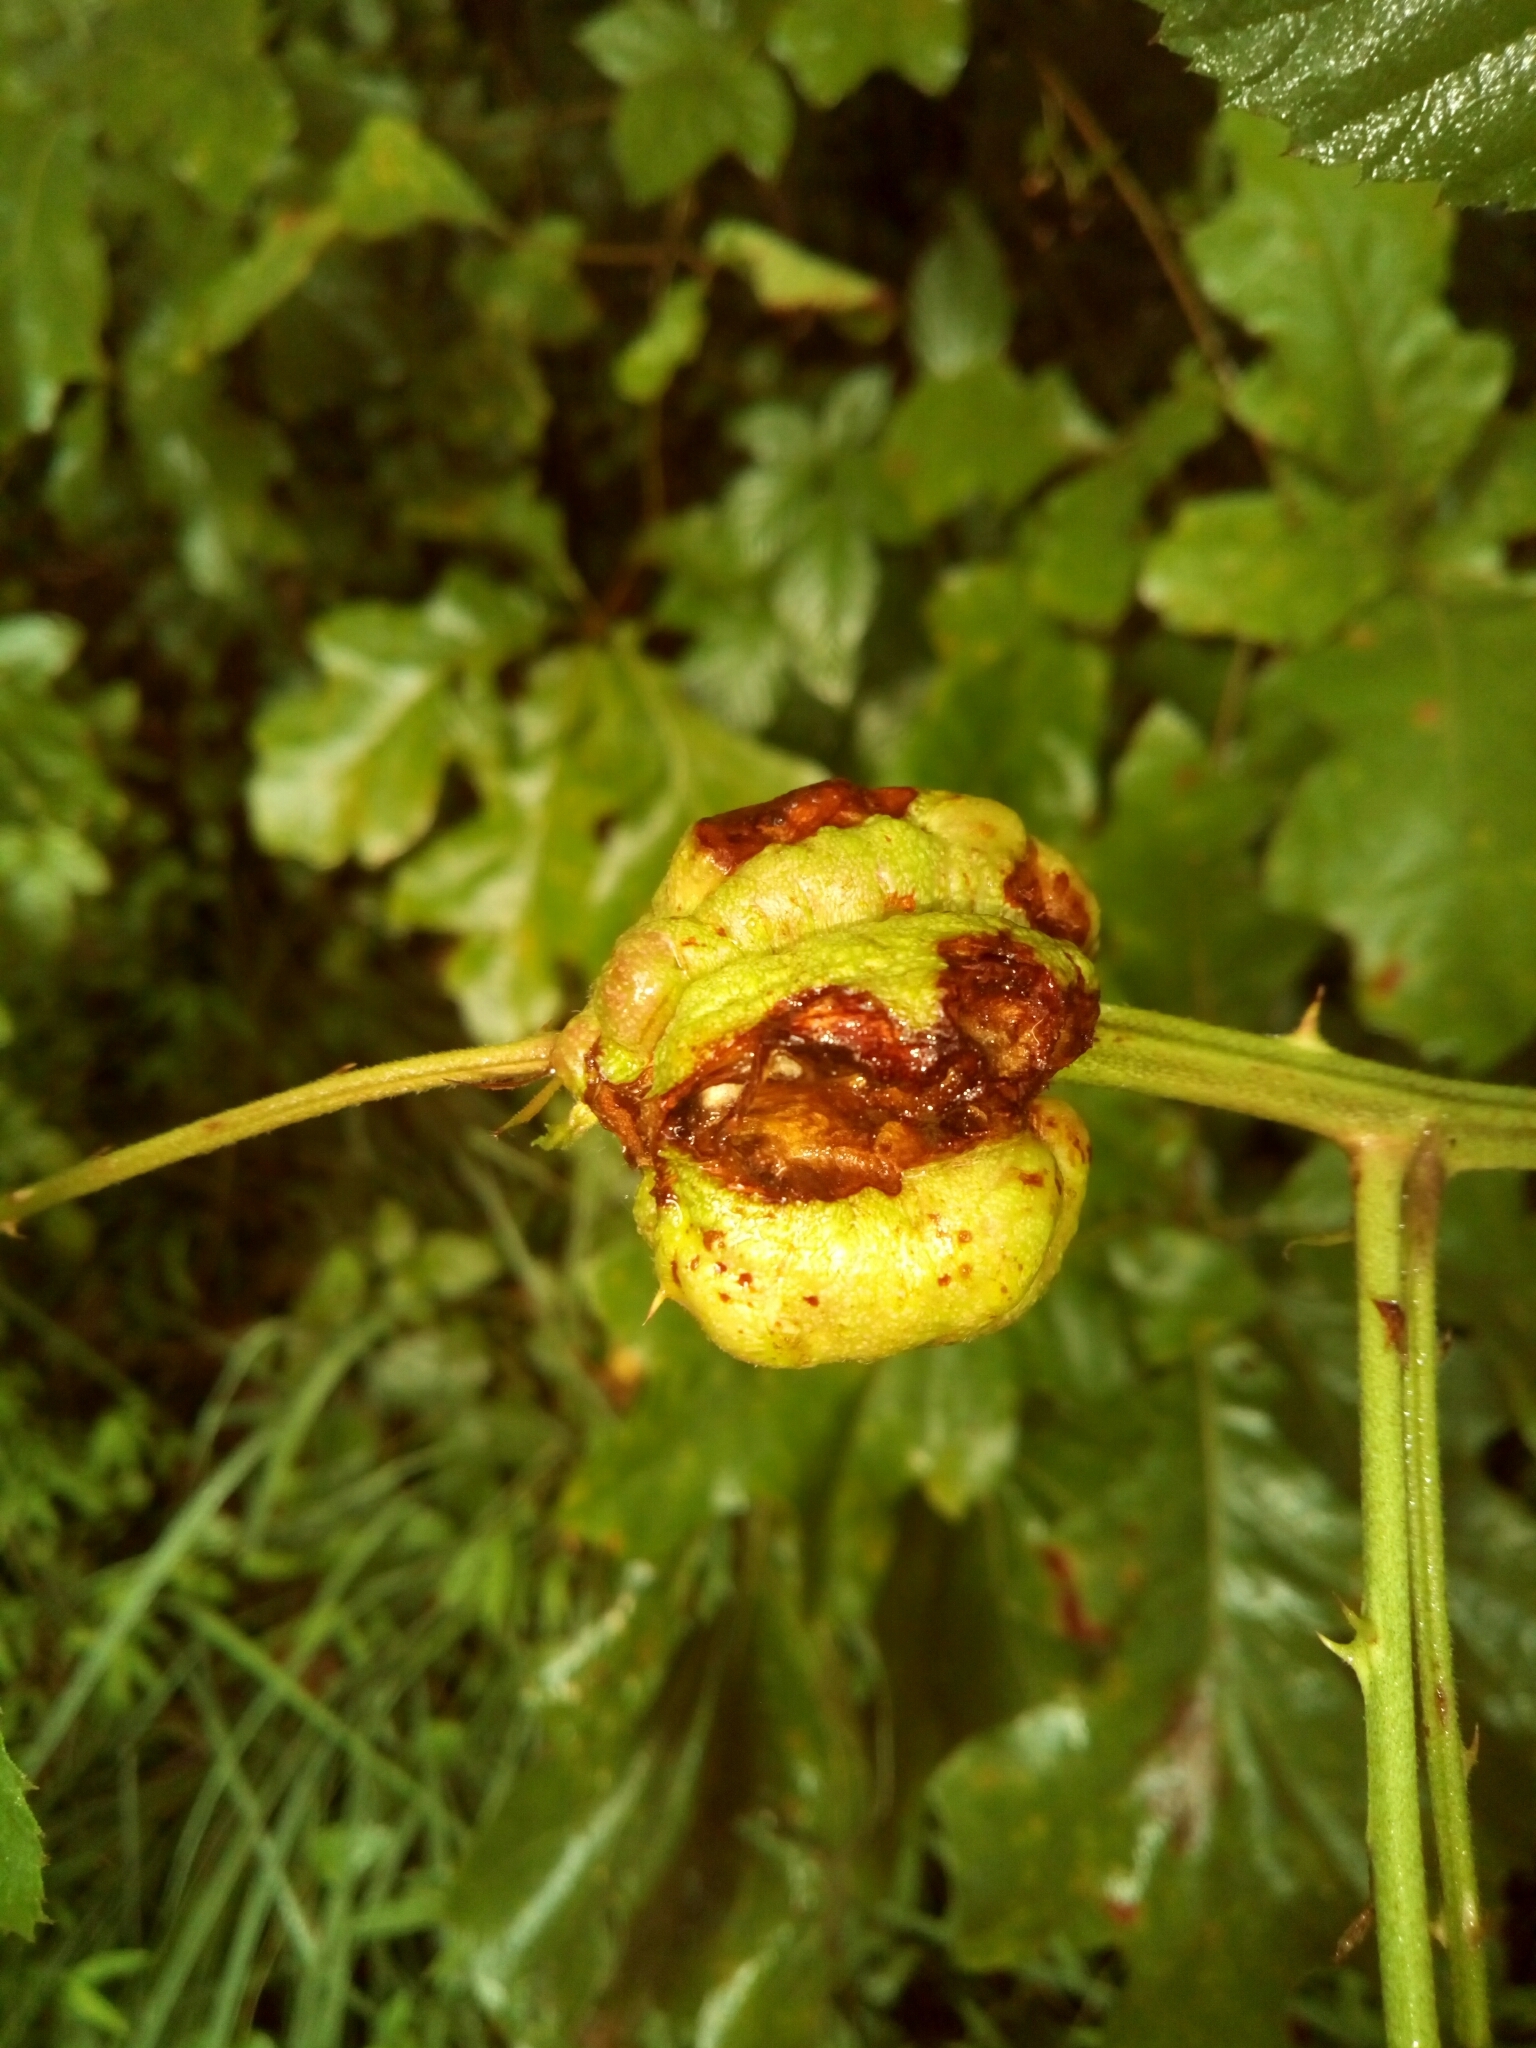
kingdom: Animalia
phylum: Arthropoda
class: Insecta
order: Hymenoptera
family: Cynipidae
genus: Diastrophus
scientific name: Diastrophus
